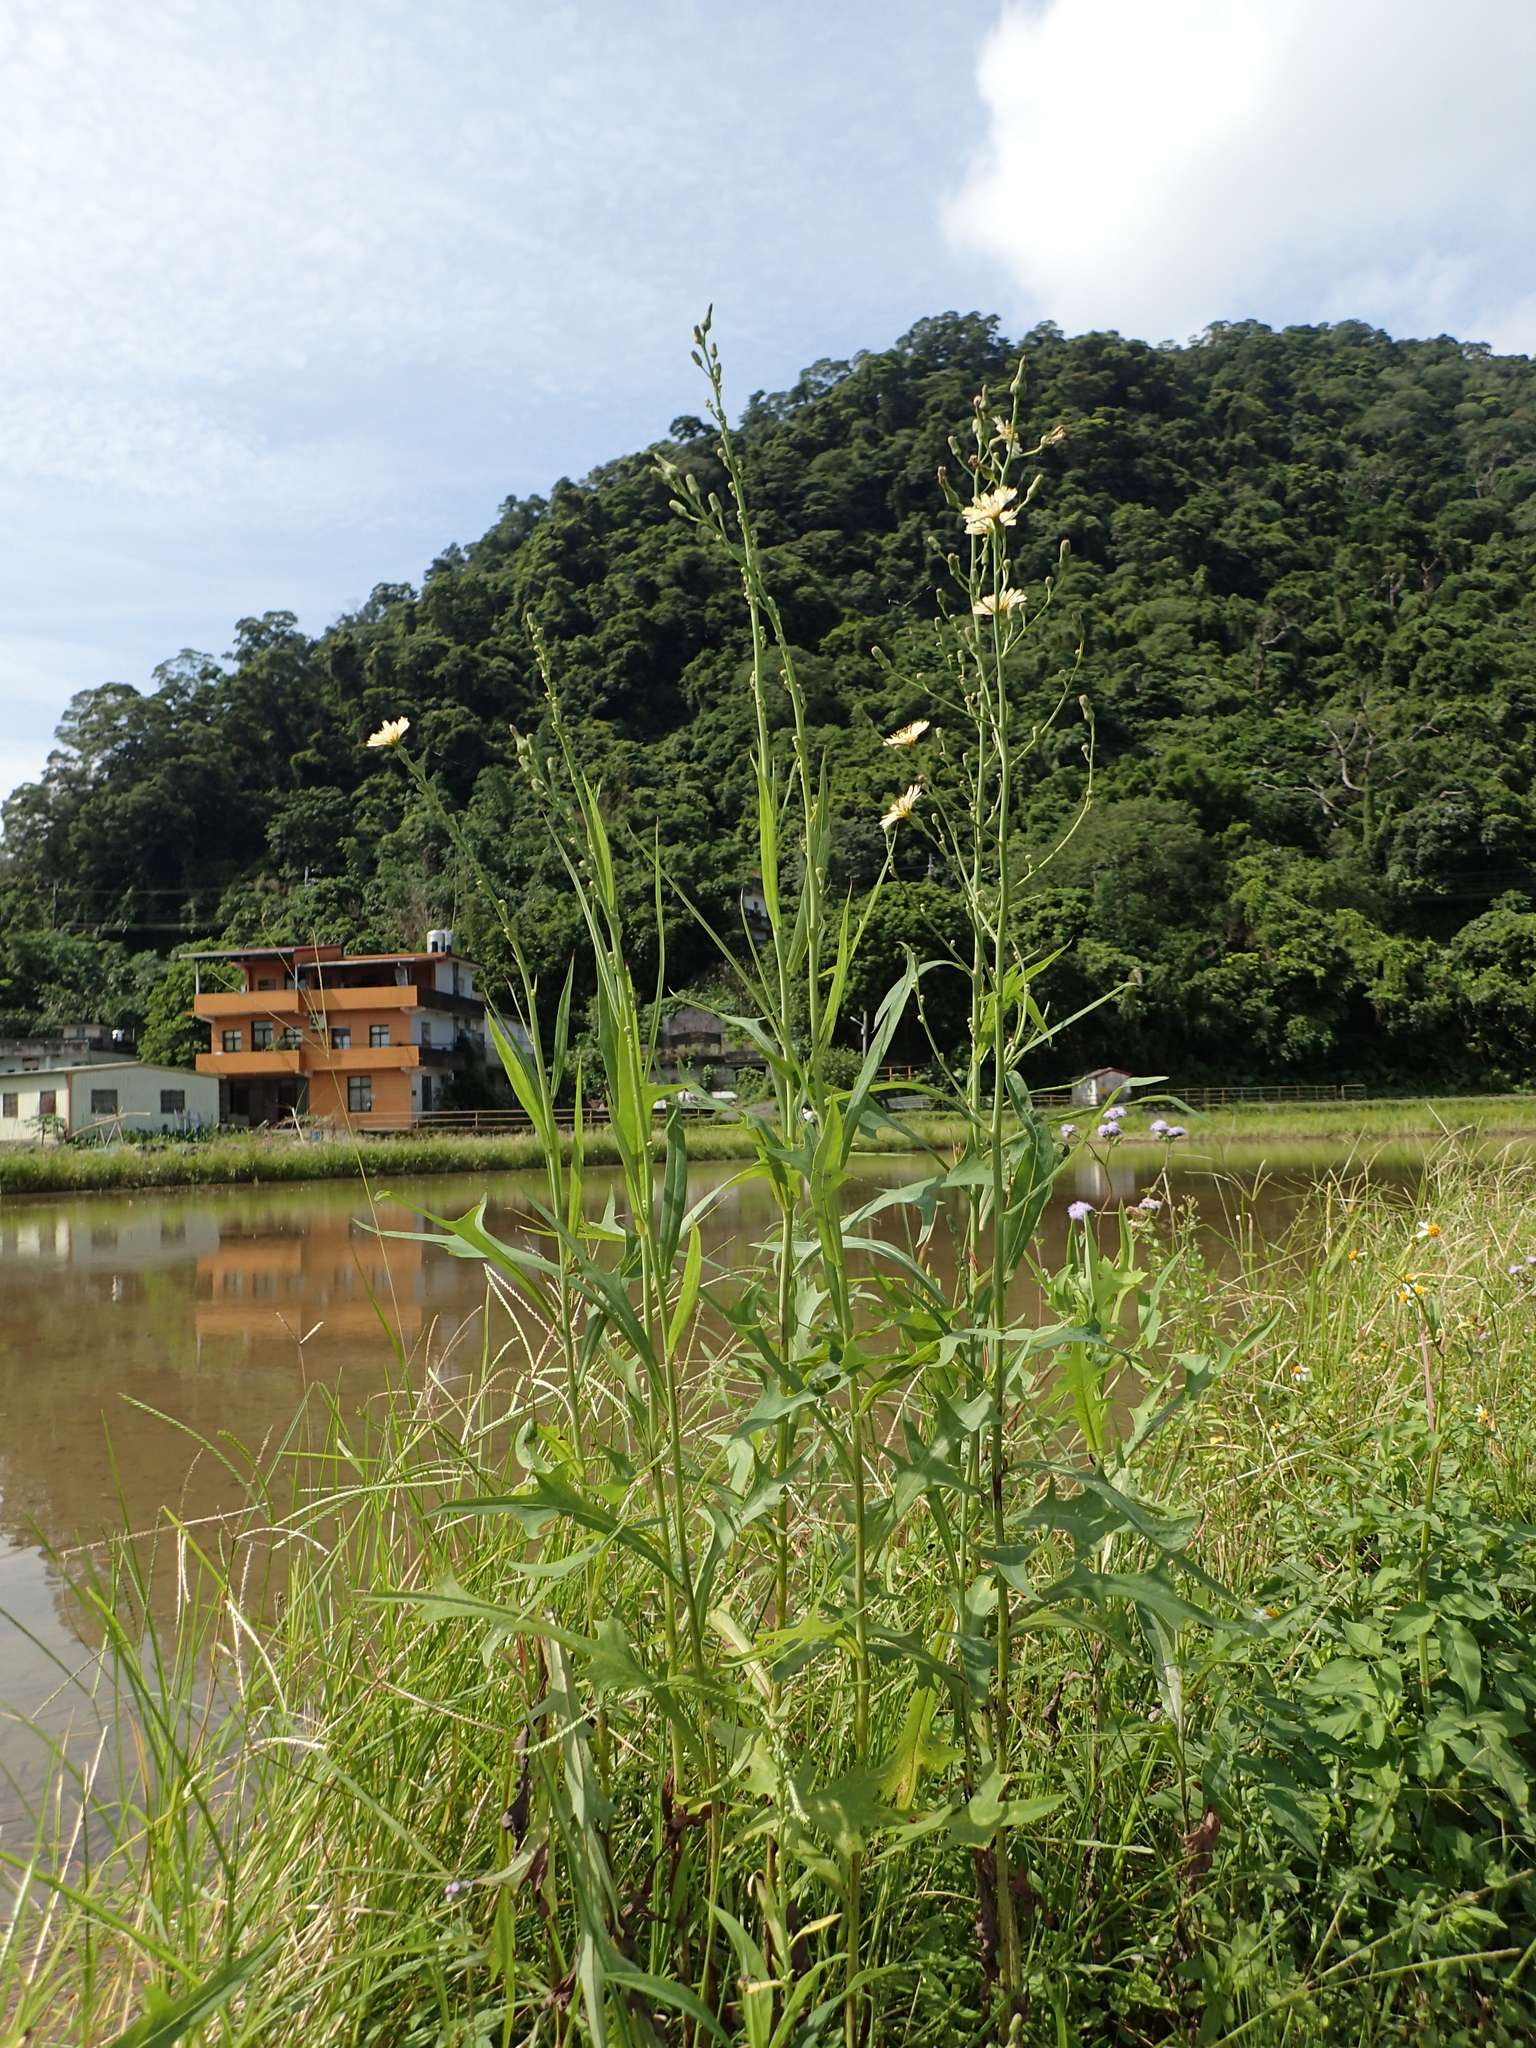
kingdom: Plantae
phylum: Tracheophyta
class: Magnoliopsida
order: Asterales
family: Asteraceae
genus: Lactuca
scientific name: Lactuca indica
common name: Wild lettuce
